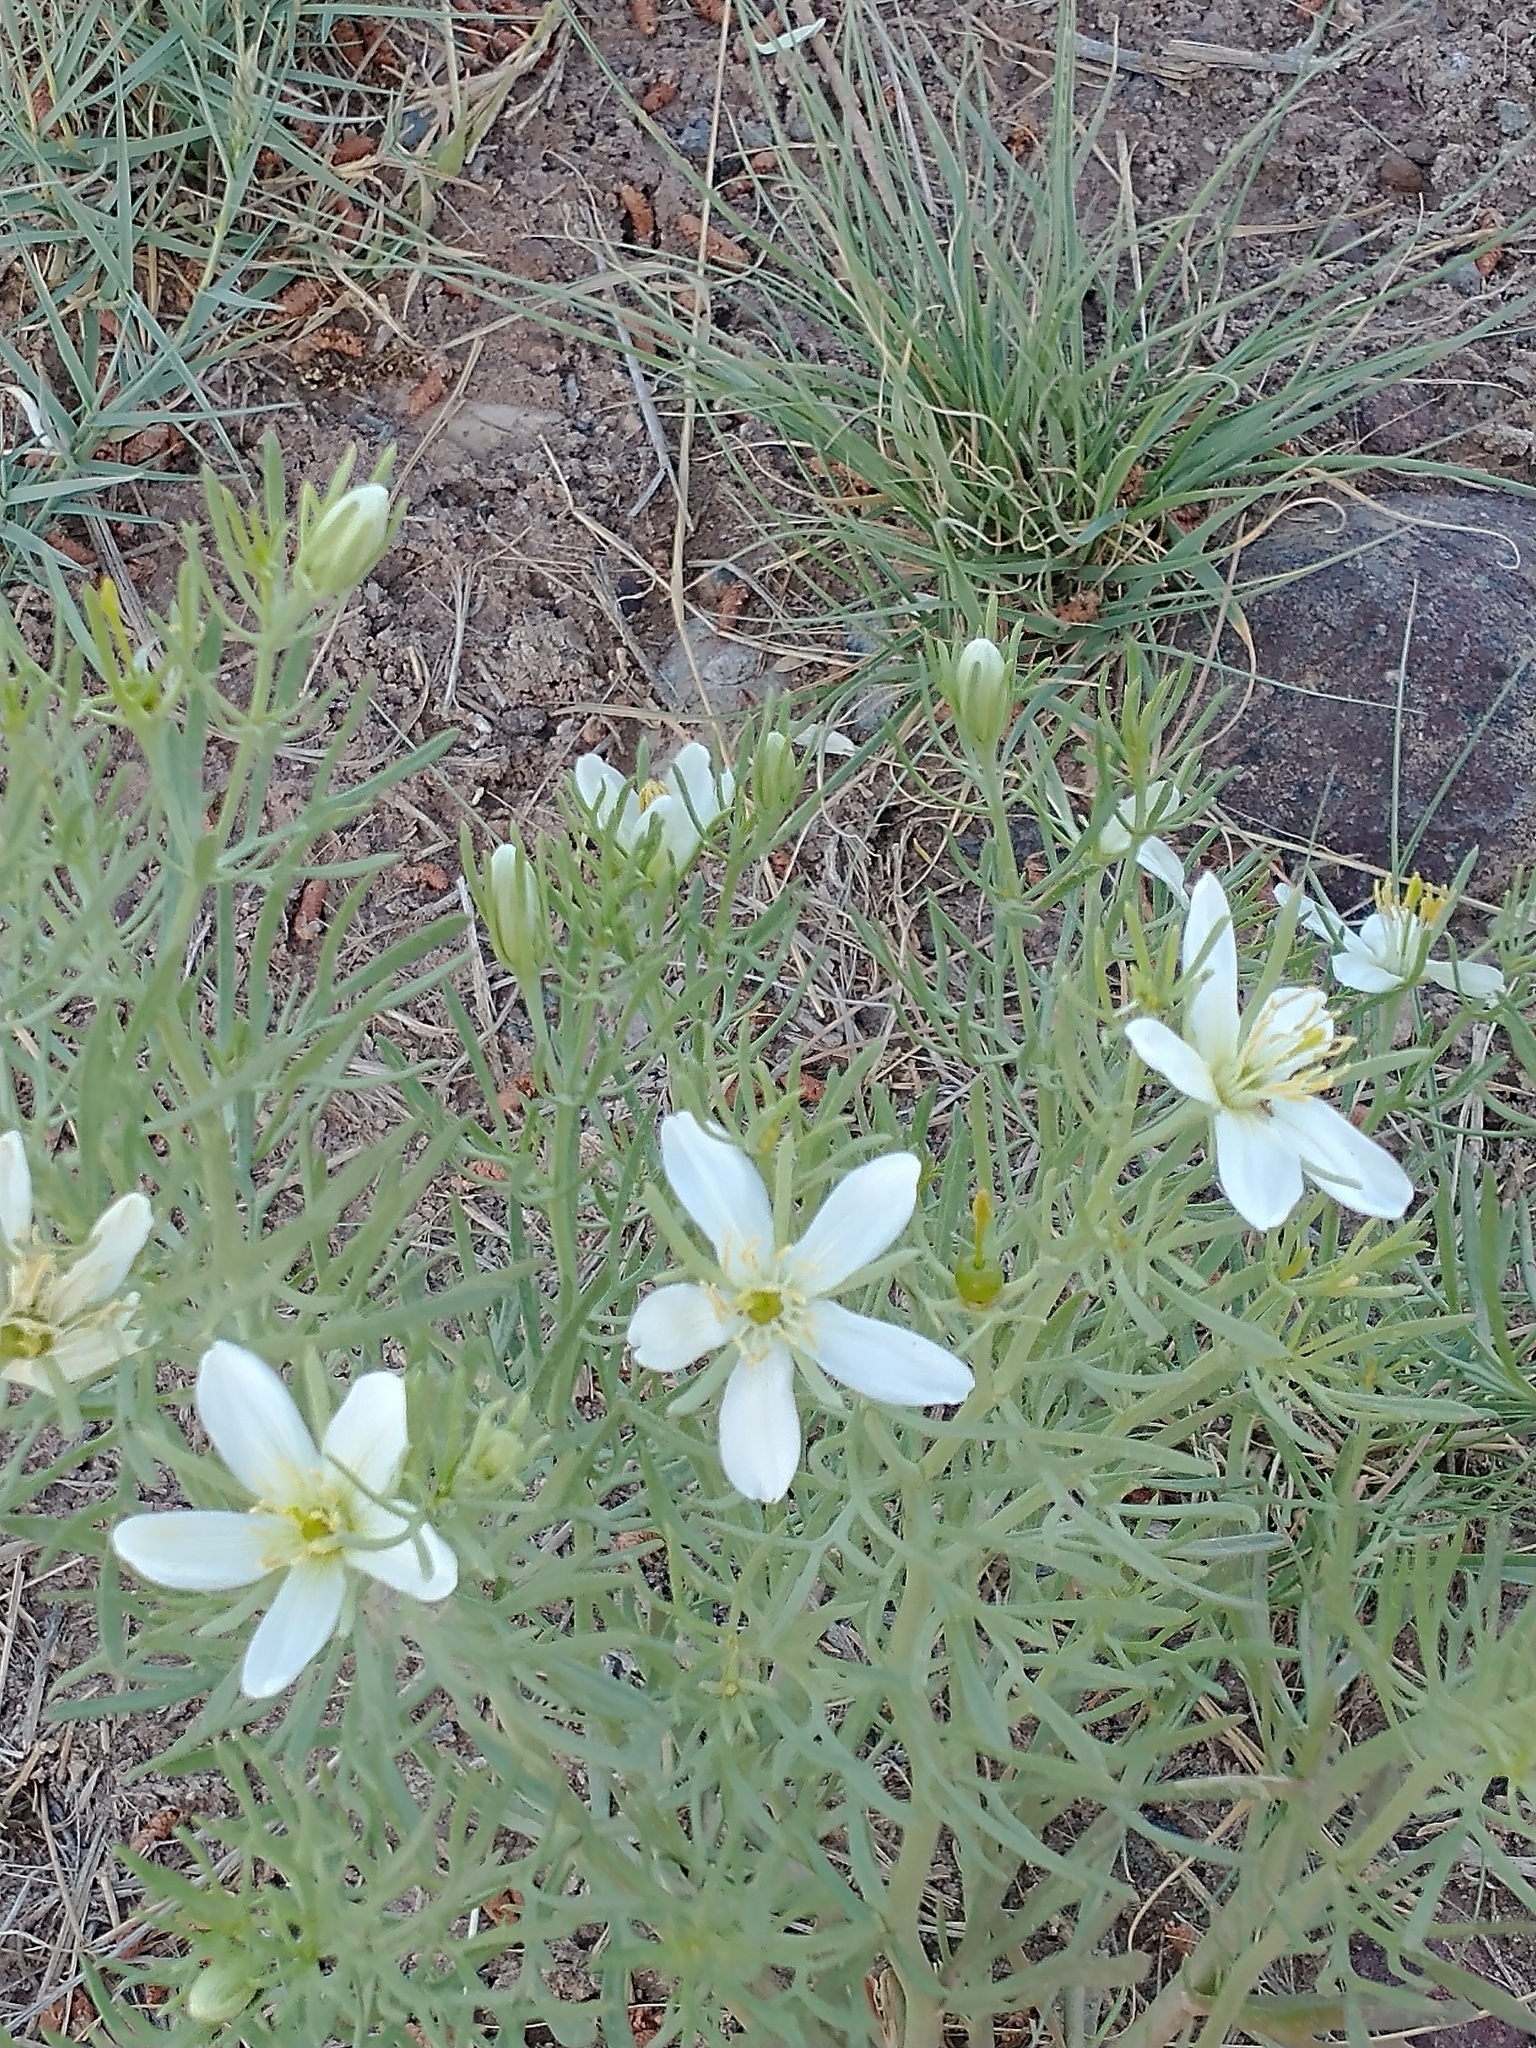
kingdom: Plantae
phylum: Tracheophyta
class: Magnoliopsida
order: Sapindales
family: Tetradiclidaceae
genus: Peganum
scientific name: Peganum harmala
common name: Harmal peganum
